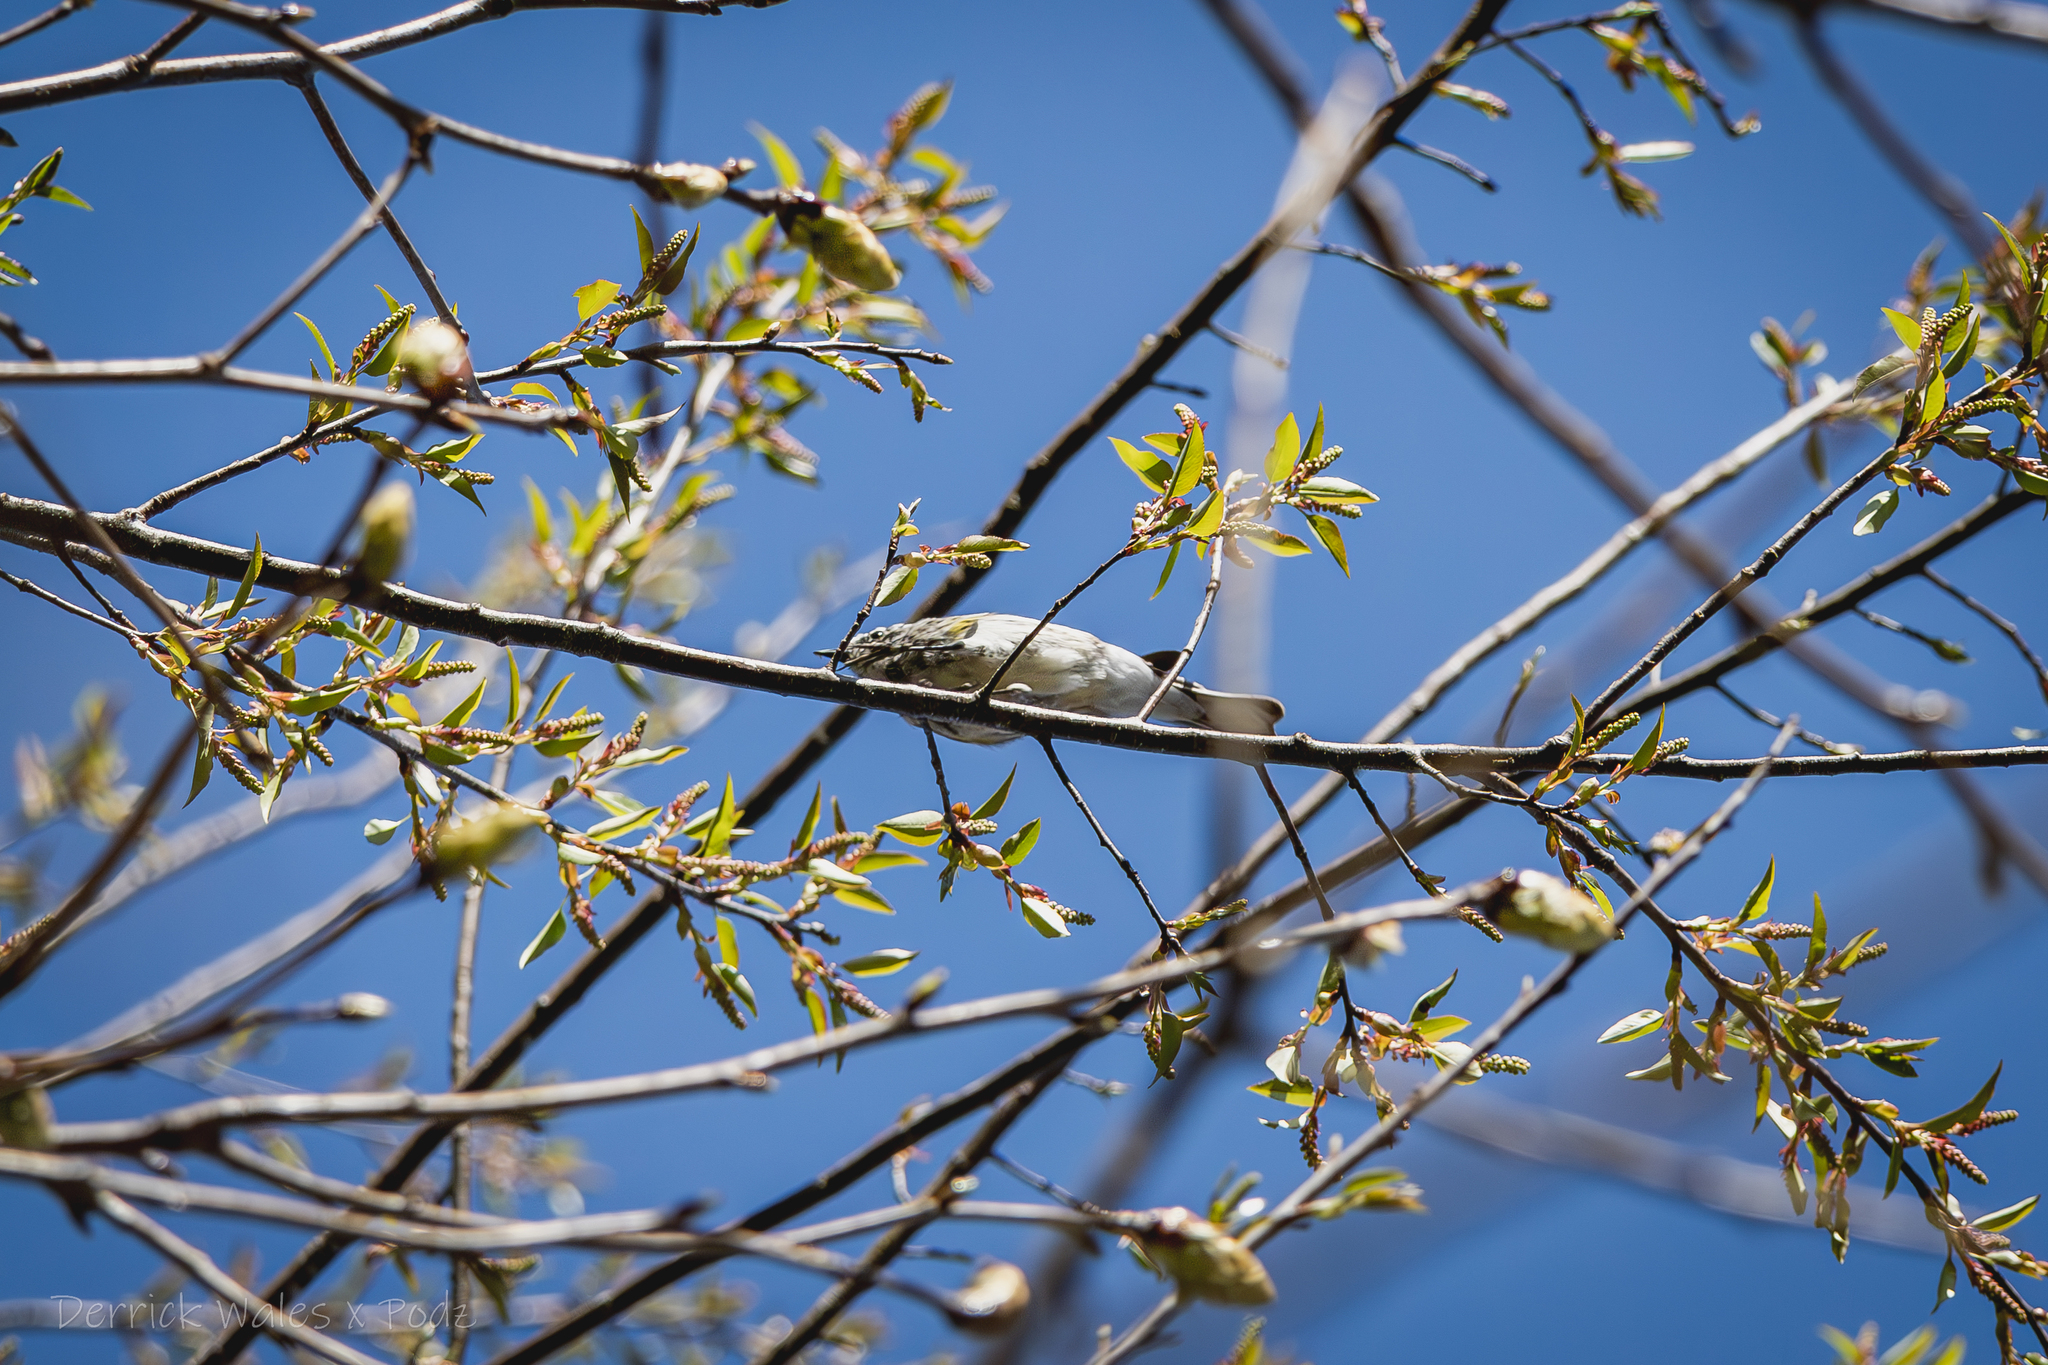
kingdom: Animalia
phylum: Chordata
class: Aves
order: Passeriformes
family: Parulidae
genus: Setophaga
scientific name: Setophaga coronata
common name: Myrtle warbler
